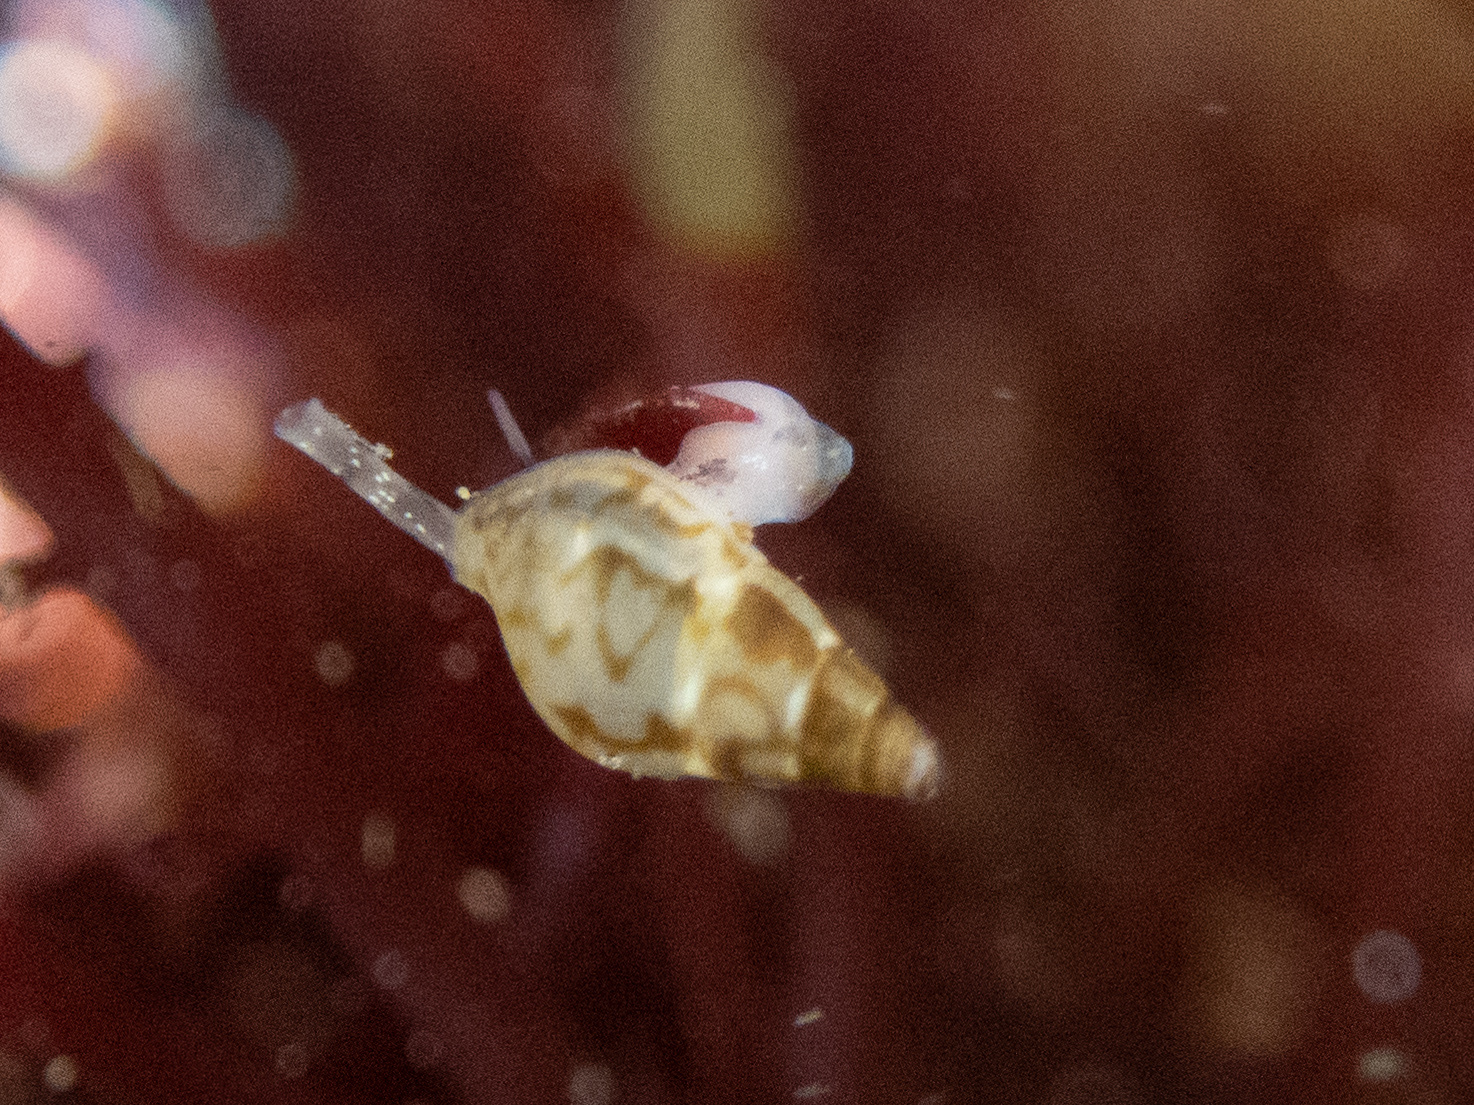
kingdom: Animalia
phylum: Mollusca
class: Gastropoda
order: Neogastropoda
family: Columbellidae
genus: Alia
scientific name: Alia carinata
